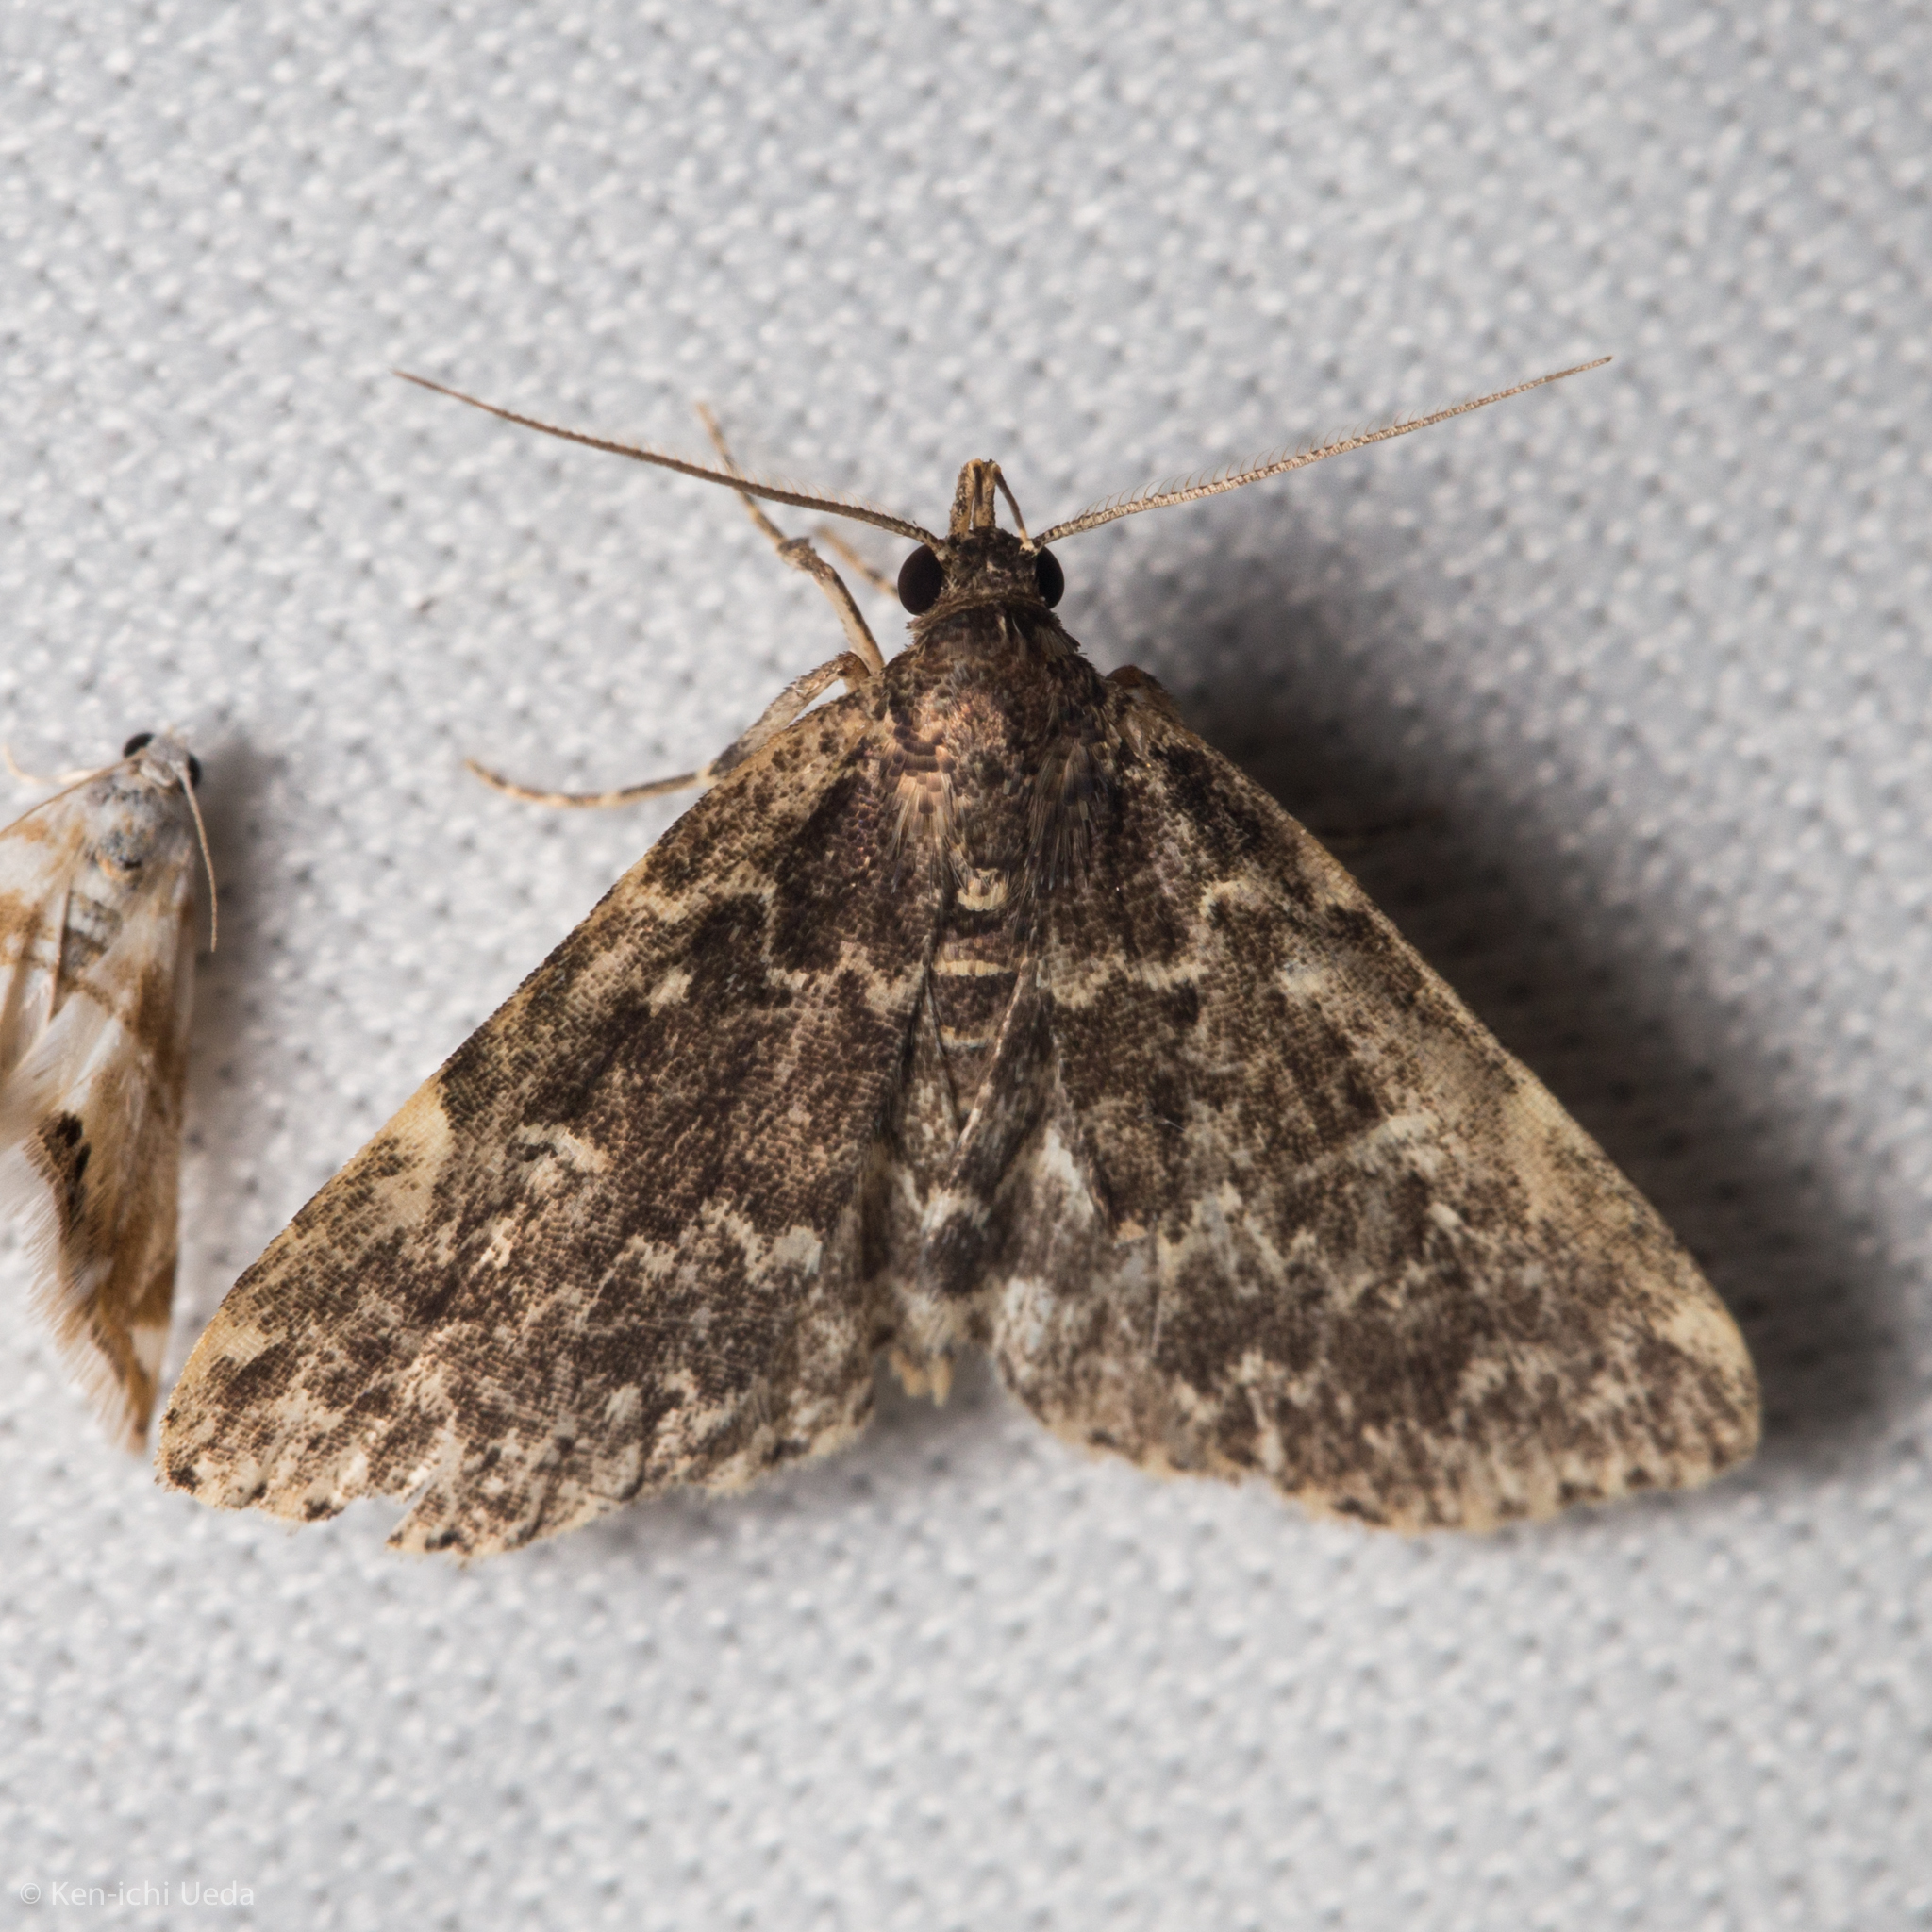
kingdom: Animalia
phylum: Arthropoda
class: Insecta
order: Lepidoptera
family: Erebidae
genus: Idia
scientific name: Idia scobialis
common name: Smoky idia moth
